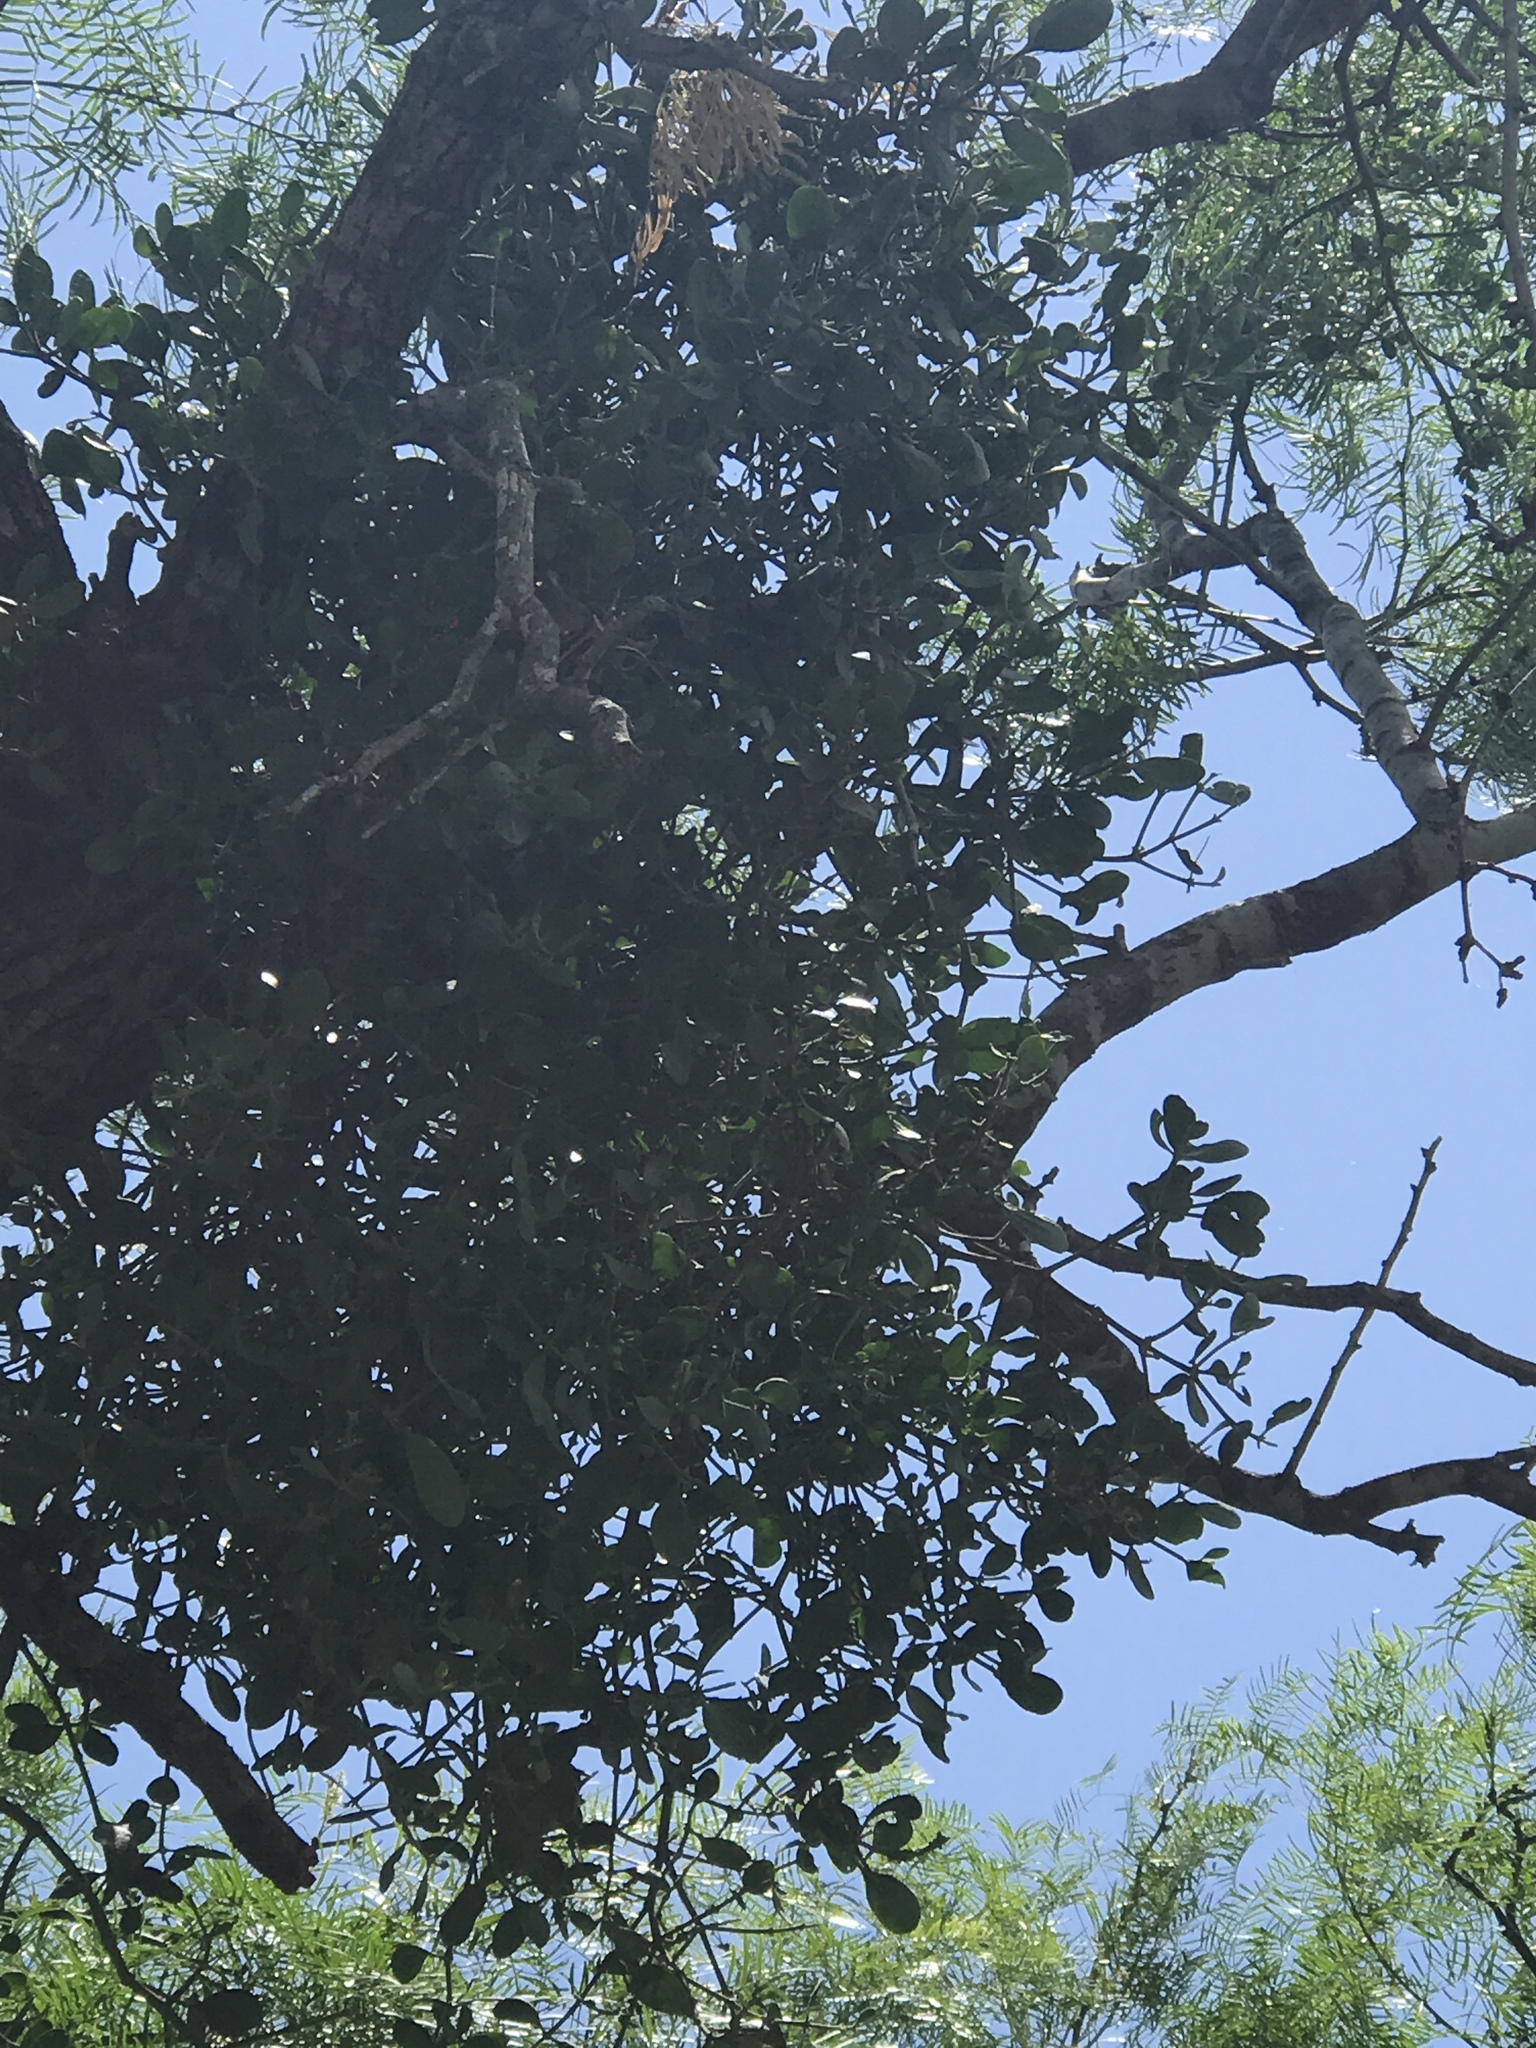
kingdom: Plantae
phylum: Tracheophyta
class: Magnoliopsida
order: Santalales
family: Viscaceae
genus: Phoradendron
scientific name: Phoradendron leucarpum
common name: Pacific mistletoe
